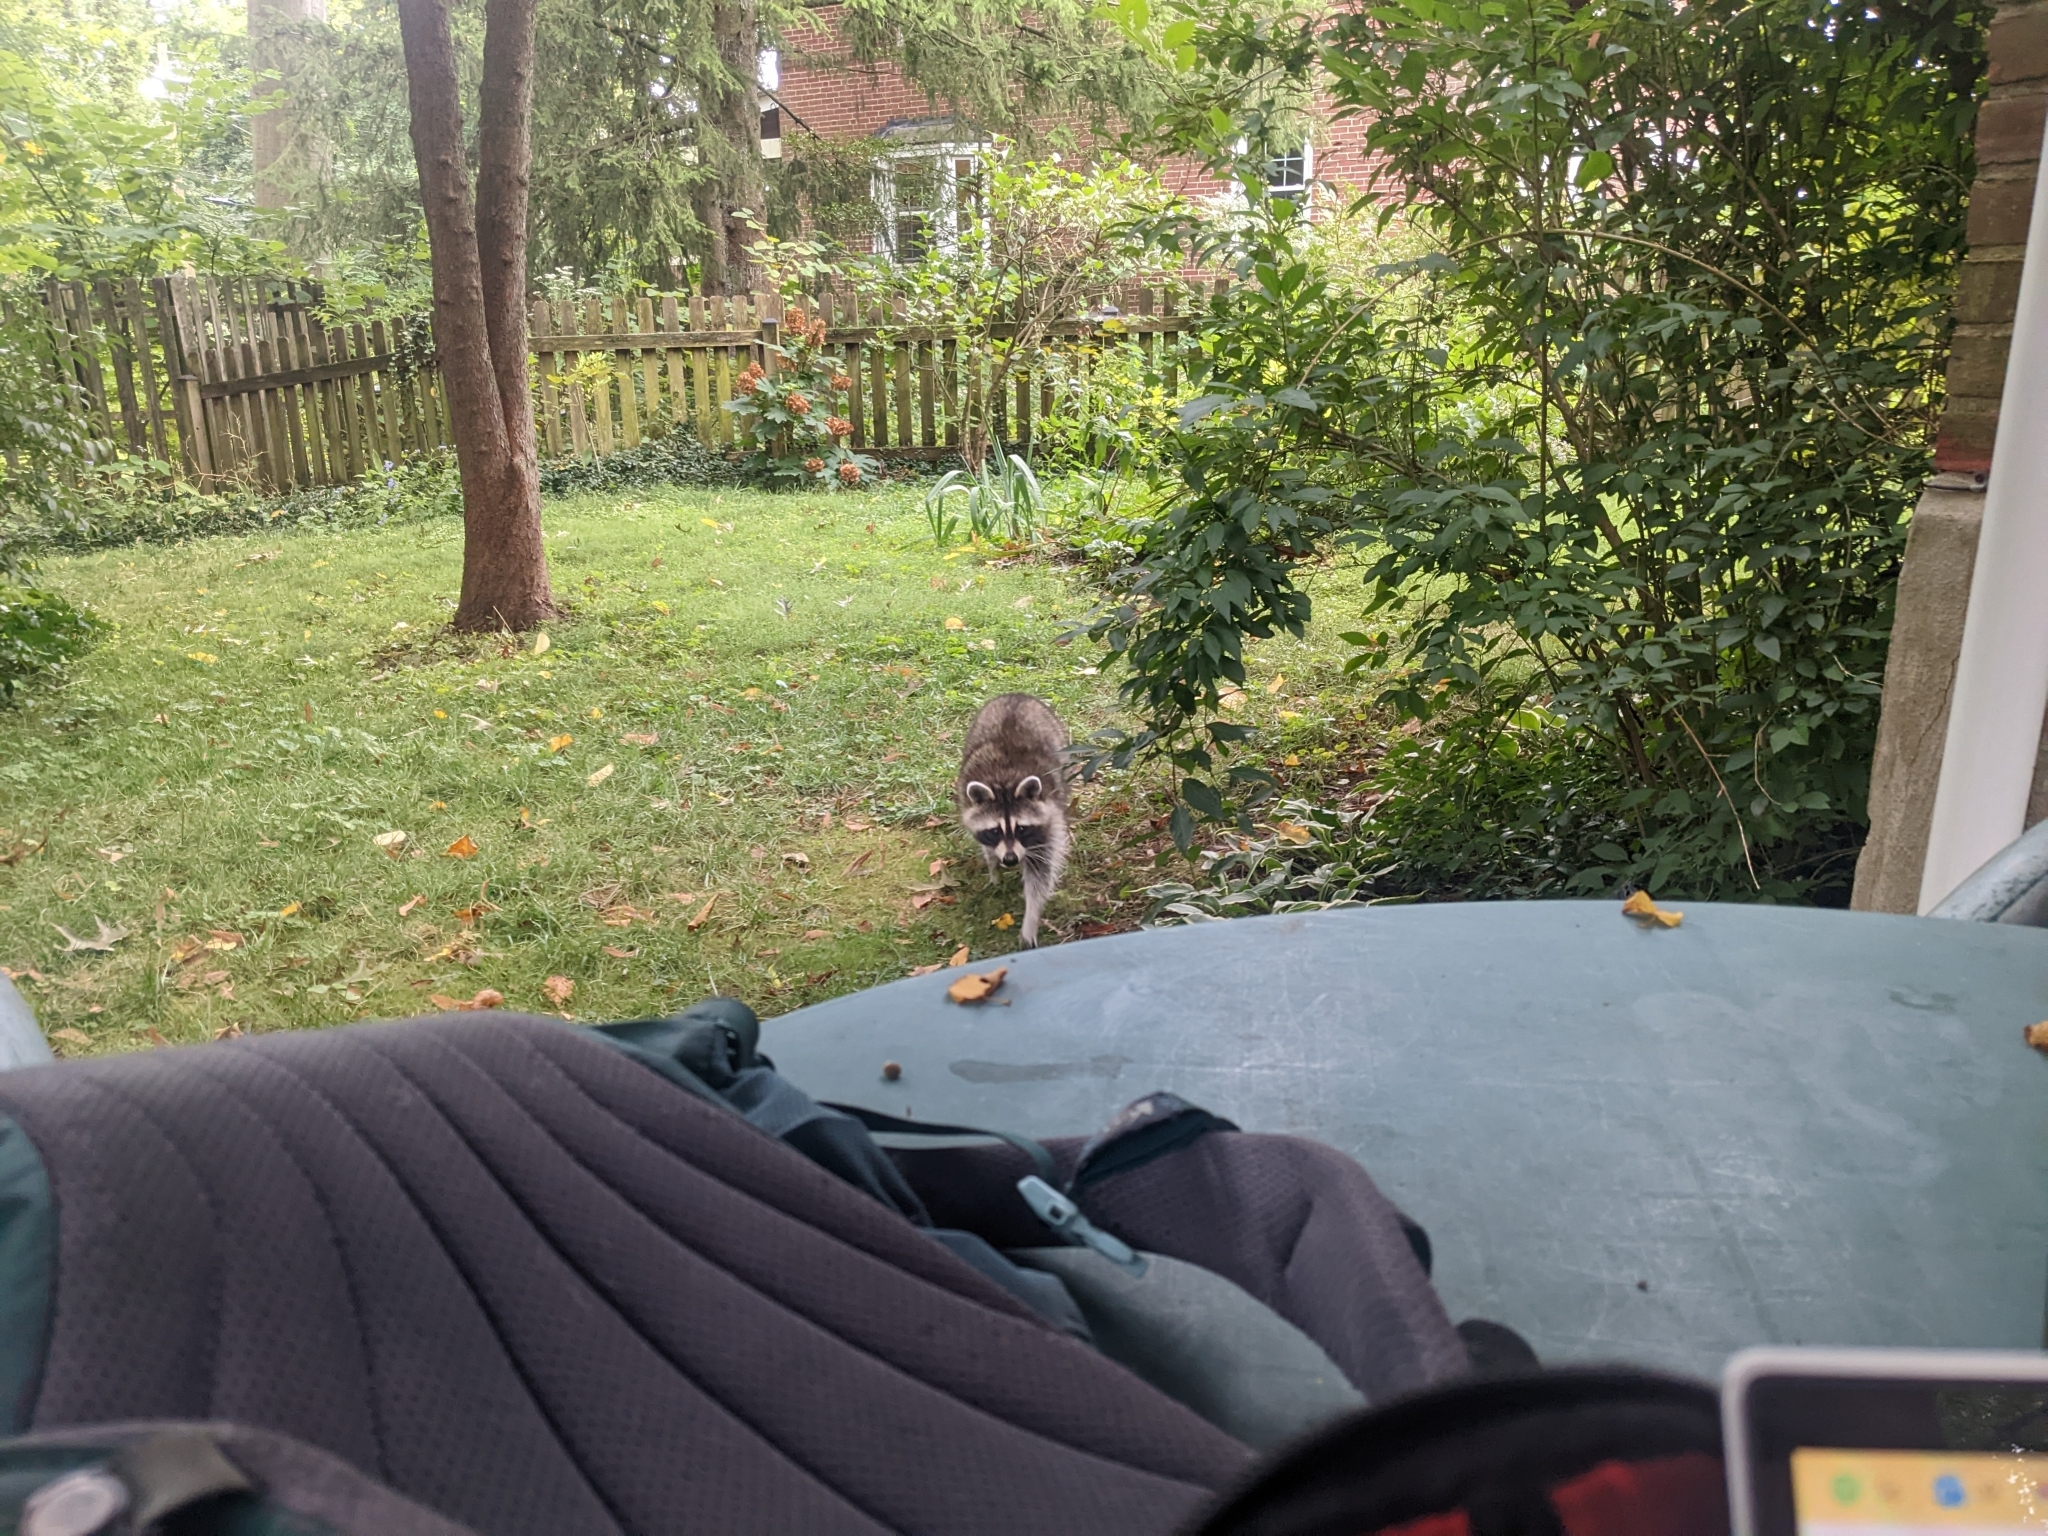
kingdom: Animalia
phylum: Chordata
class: Mammalia
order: Carnivora
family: Procyonidae
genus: Procyon
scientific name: Procyon lotor
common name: Raccoon
